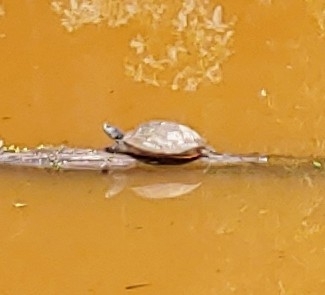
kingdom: Animalia
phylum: Chordata
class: Testudines
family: Emydidae
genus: Trachemys
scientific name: Trachemys scripta
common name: Slider
